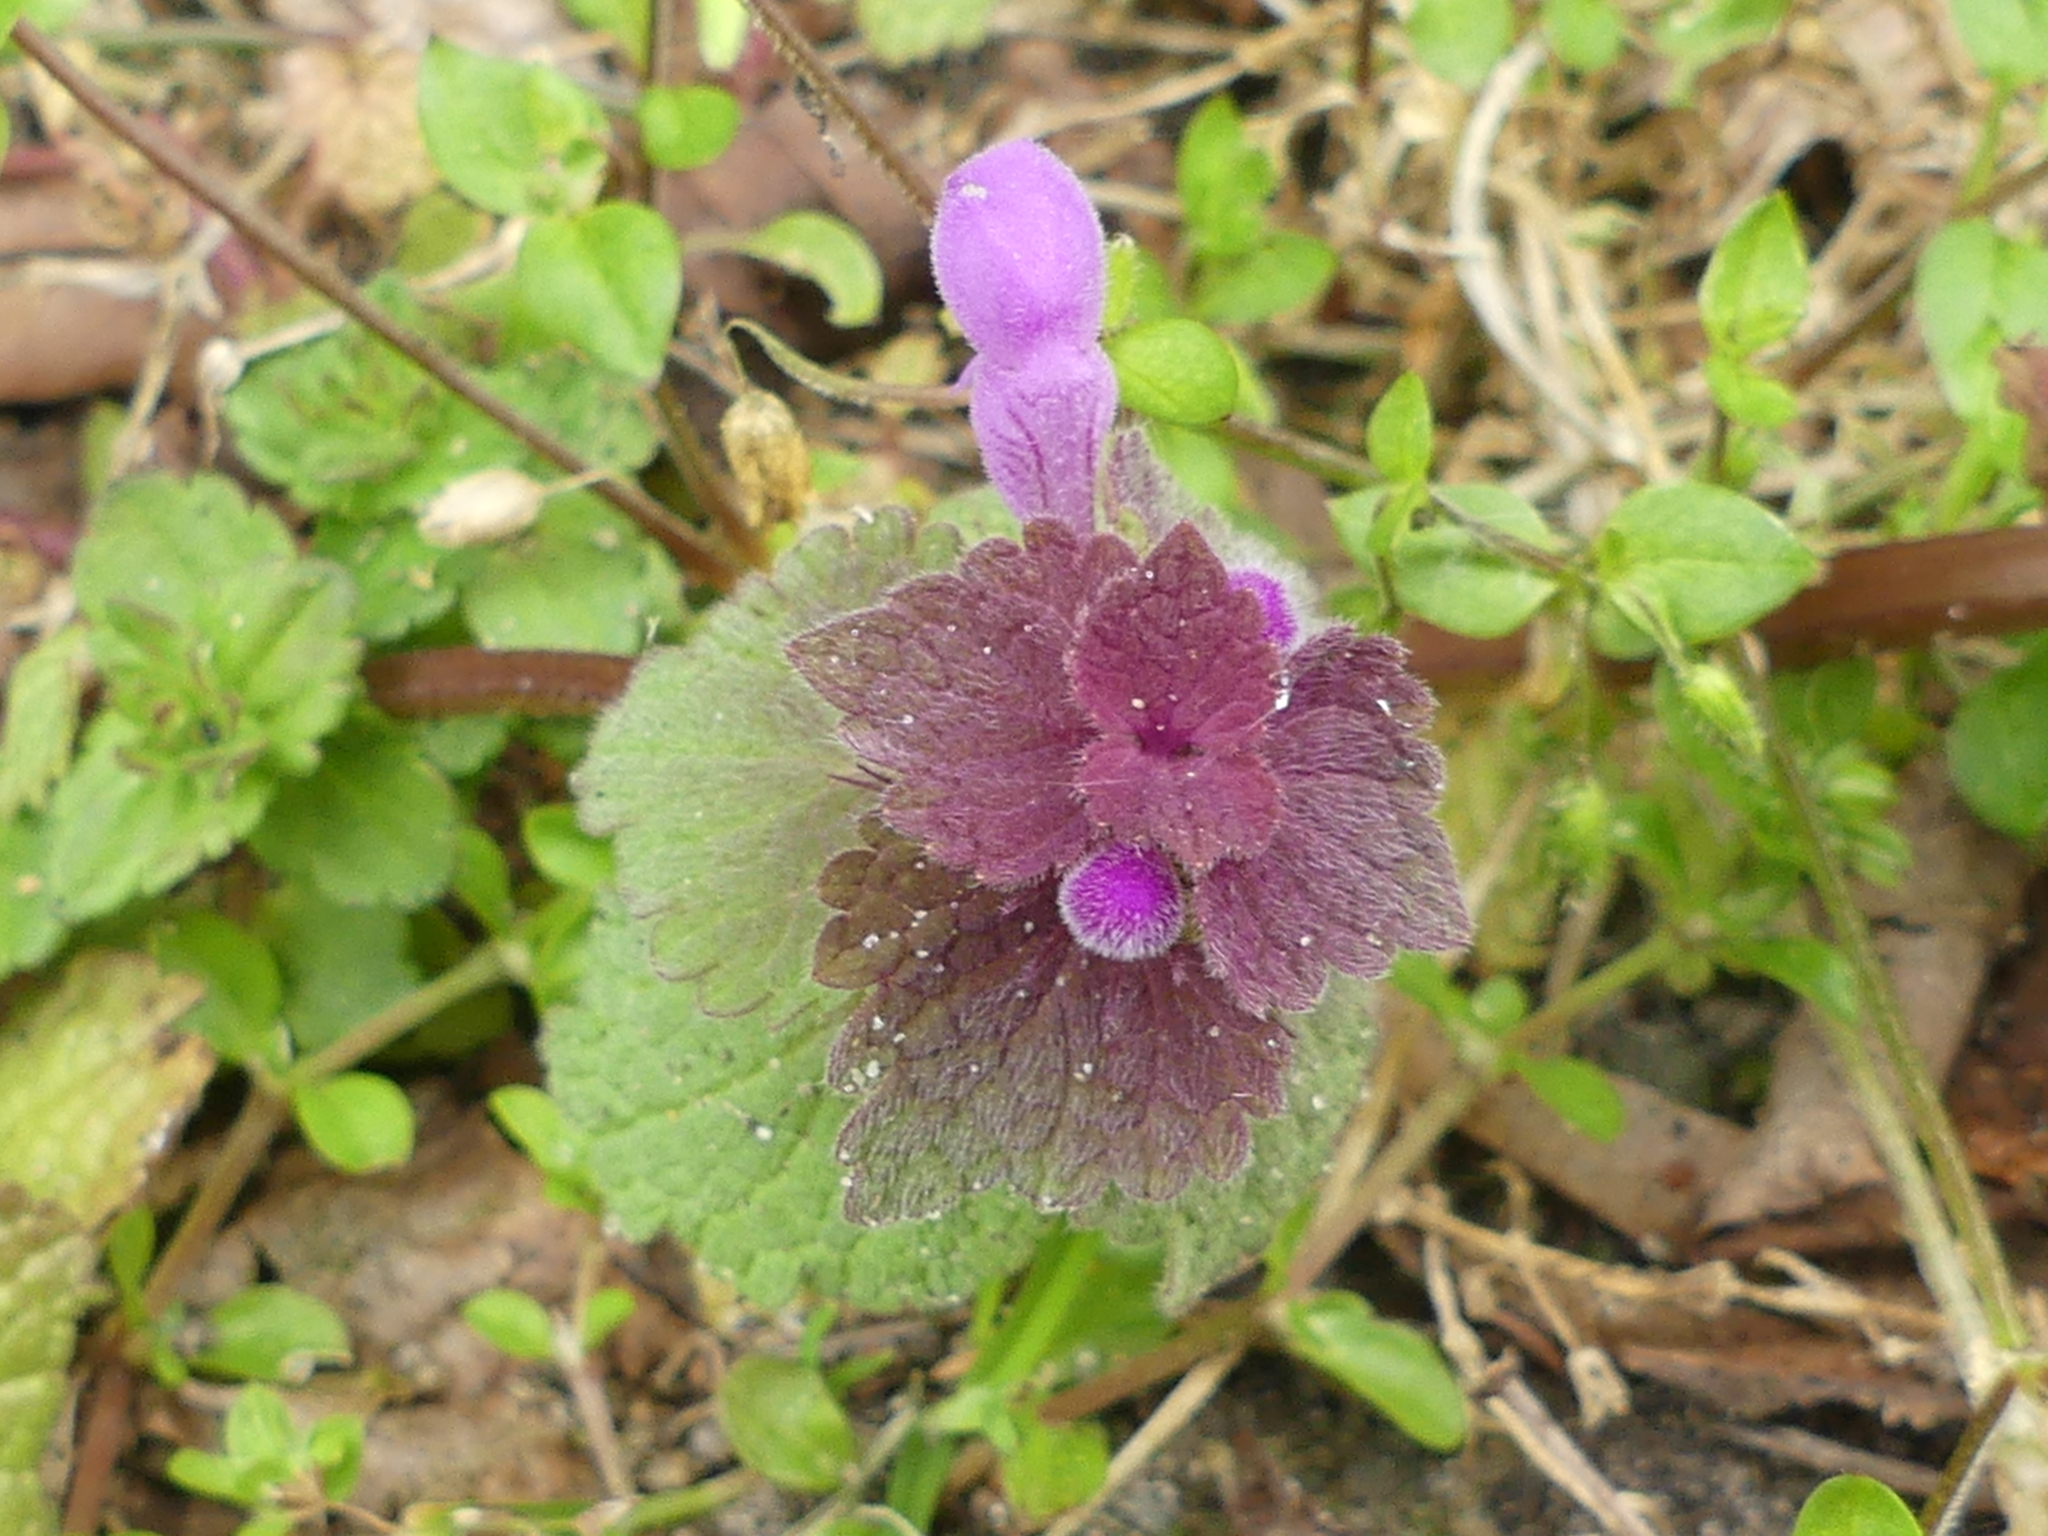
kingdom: Plantae
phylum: Tracheophyta
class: Magnoliopsida
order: Lamiales
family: Lamiaceae
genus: Lamium
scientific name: Lamium purpureum
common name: Red dead-nettle
